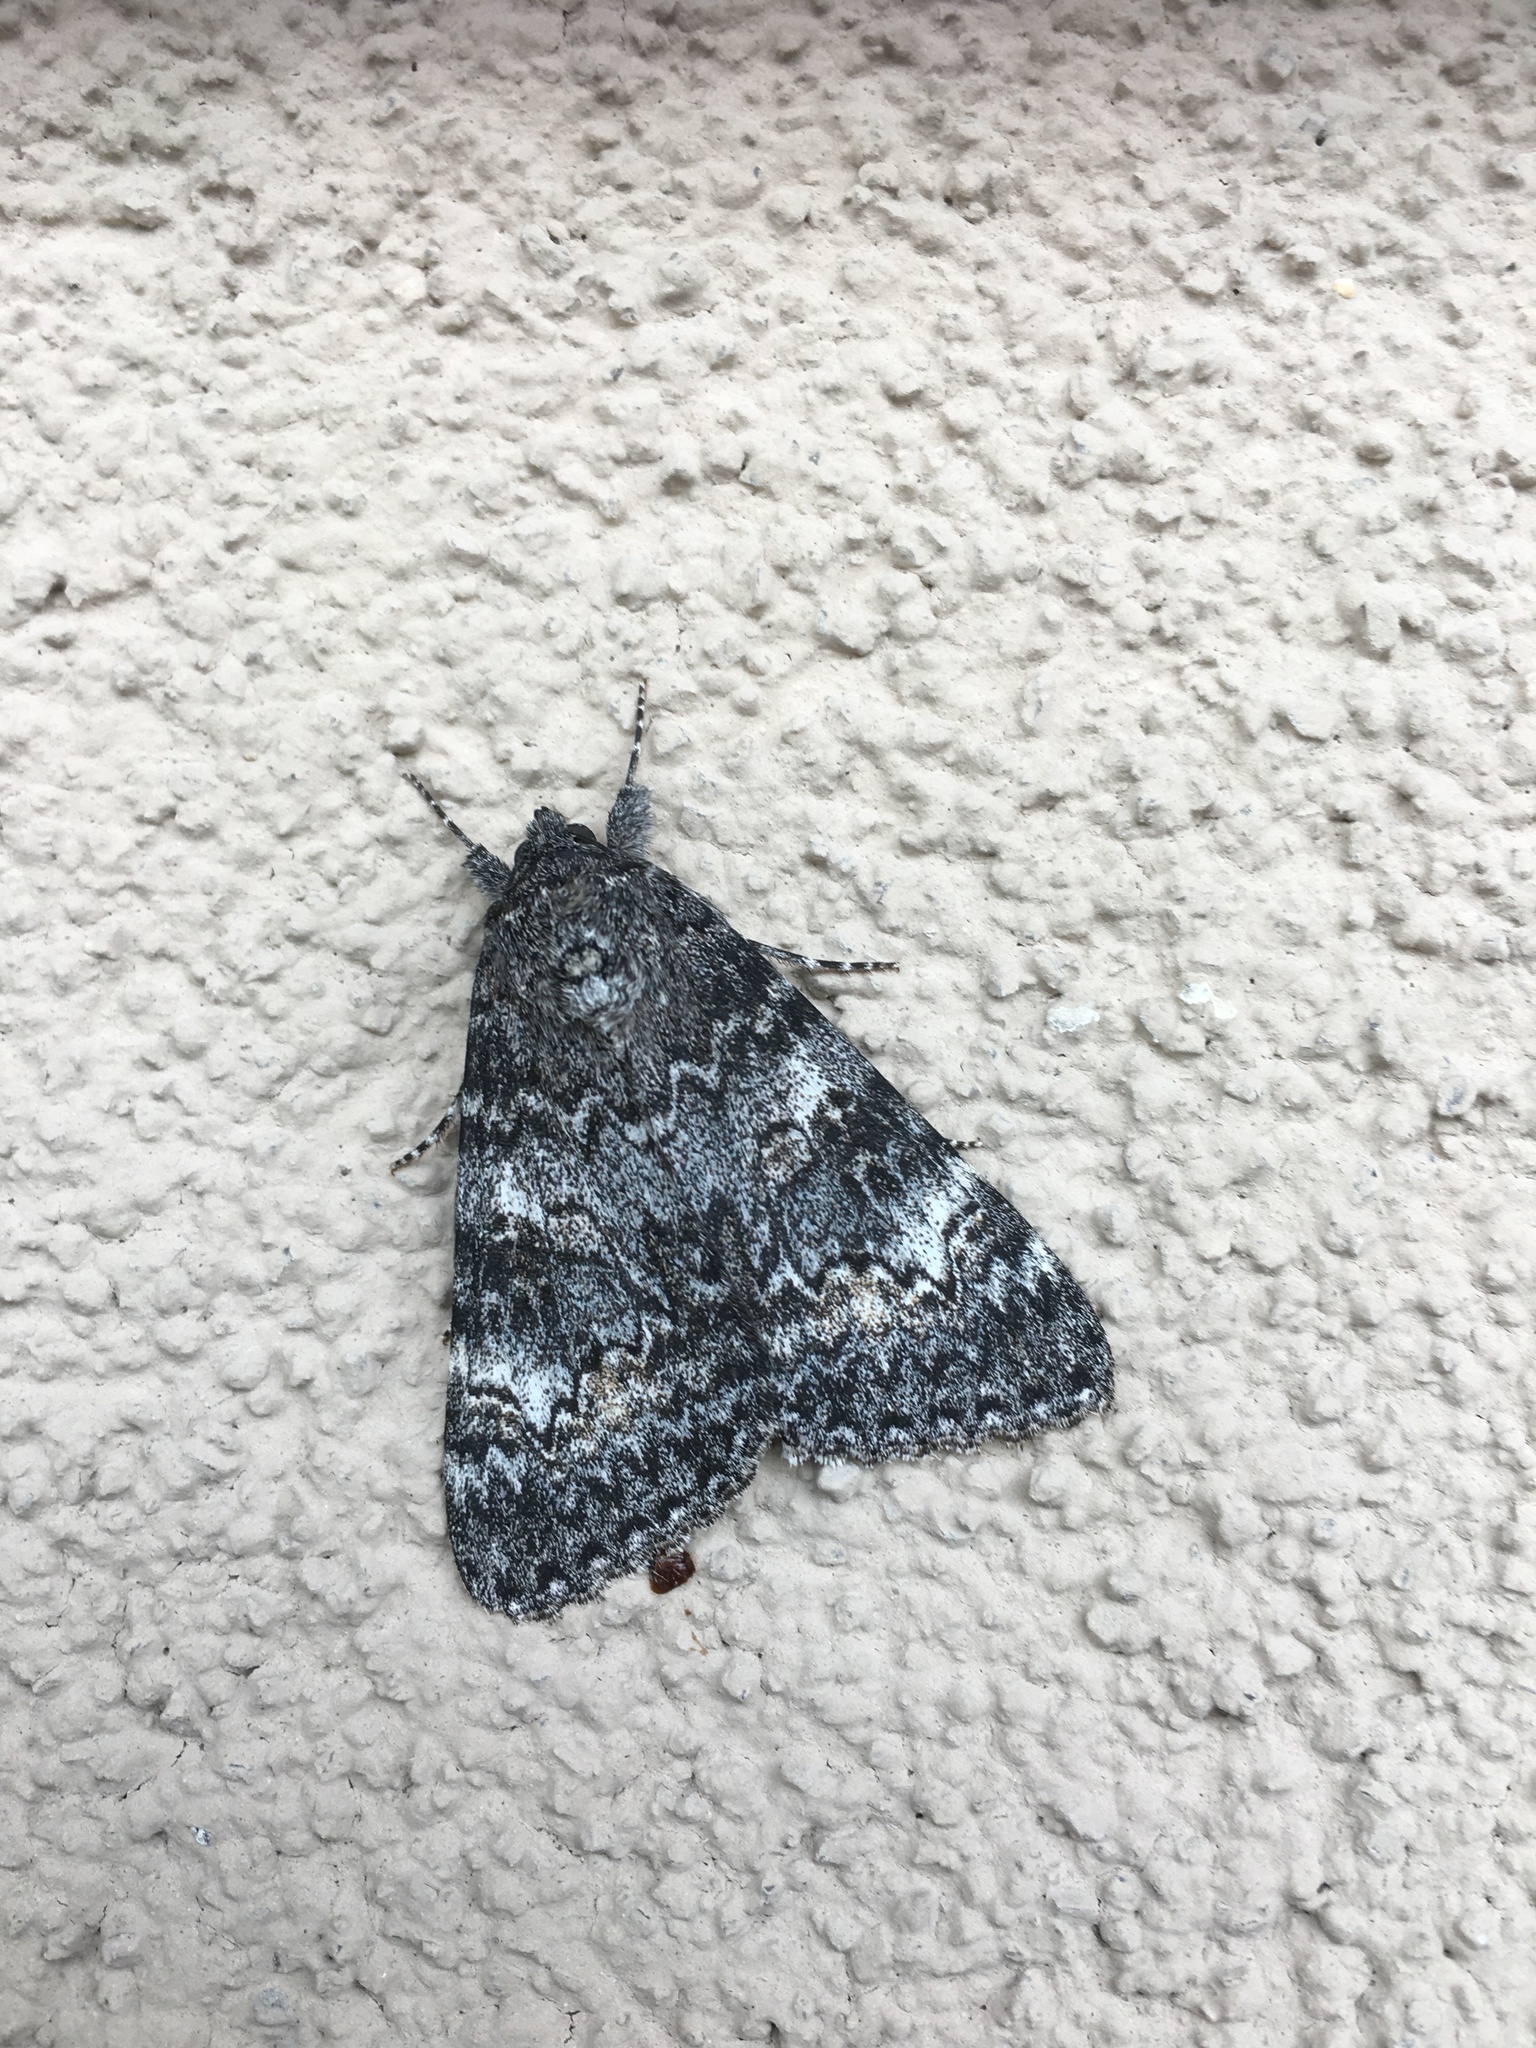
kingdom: Animalia
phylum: Arthropoda
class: Insecta
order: Lepidoptera
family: Erebidae
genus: Catocala
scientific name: Catocala briseis
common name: Briseis underwing
